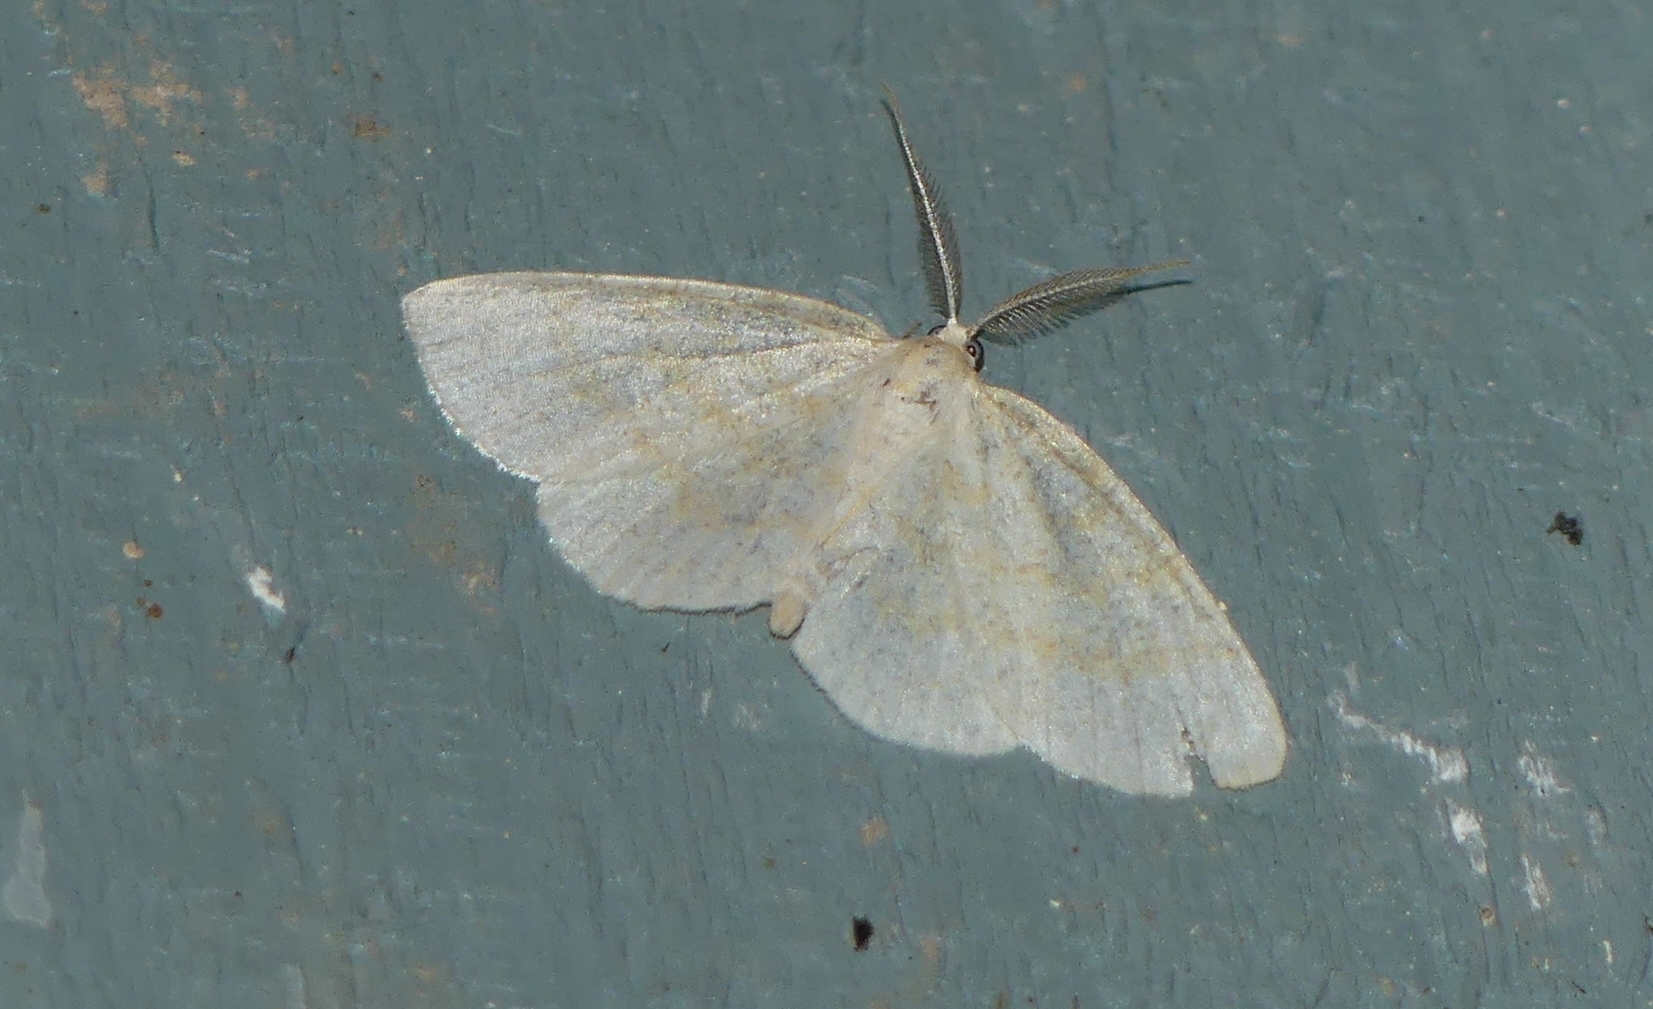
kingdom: Animalia
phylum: Arthropoda
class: Insecta
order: Lepidoptera
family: Geometridae
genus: Cabera
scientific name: Cabera erythemaria
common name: Yellow-dusted cream moth
